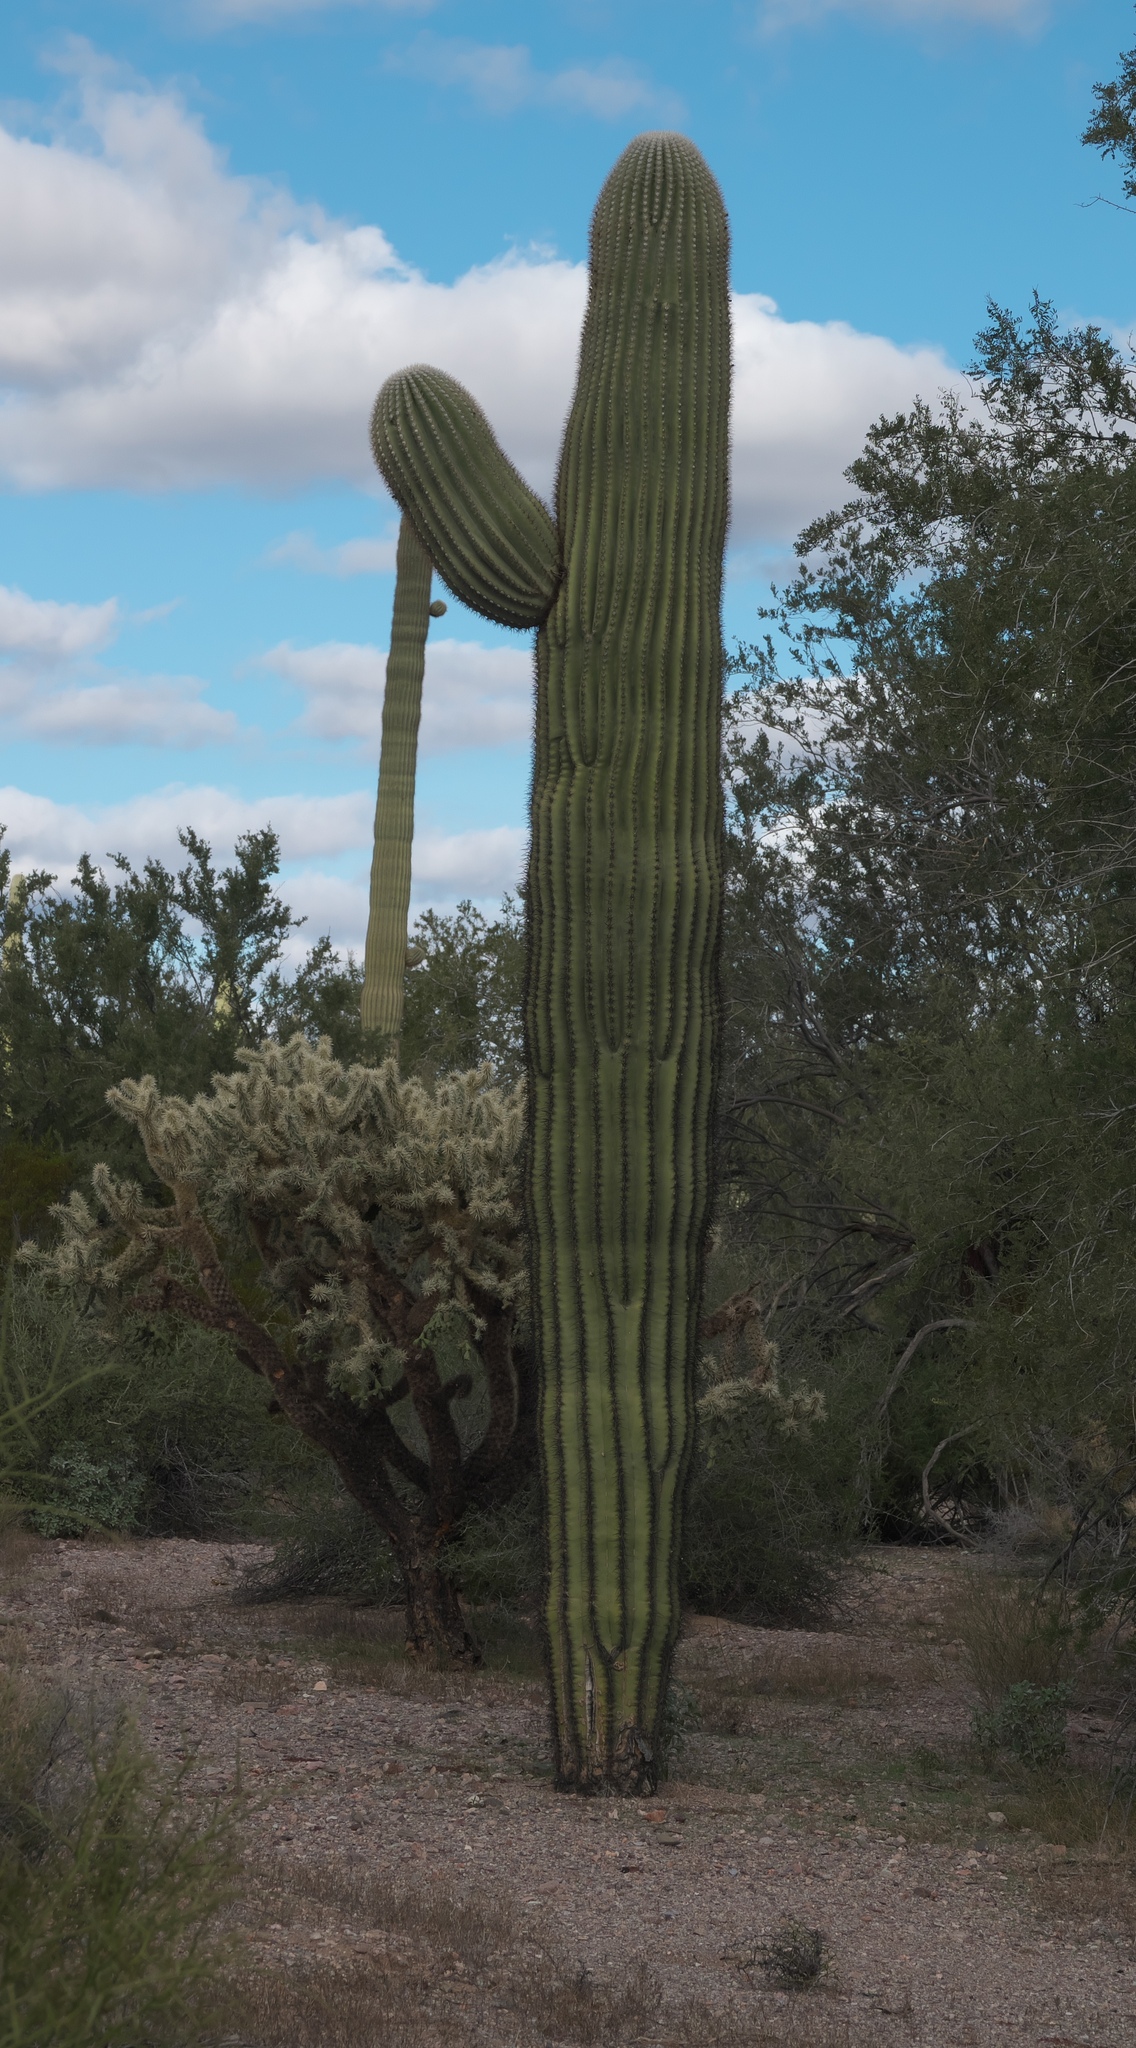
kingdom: Plantae
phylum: Tracheophyta
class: Magnoliopsida
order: Caryophyllales
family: Cactaceae
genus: Carnegiea
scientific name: Carnegiea gigantea
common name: Saguaro
